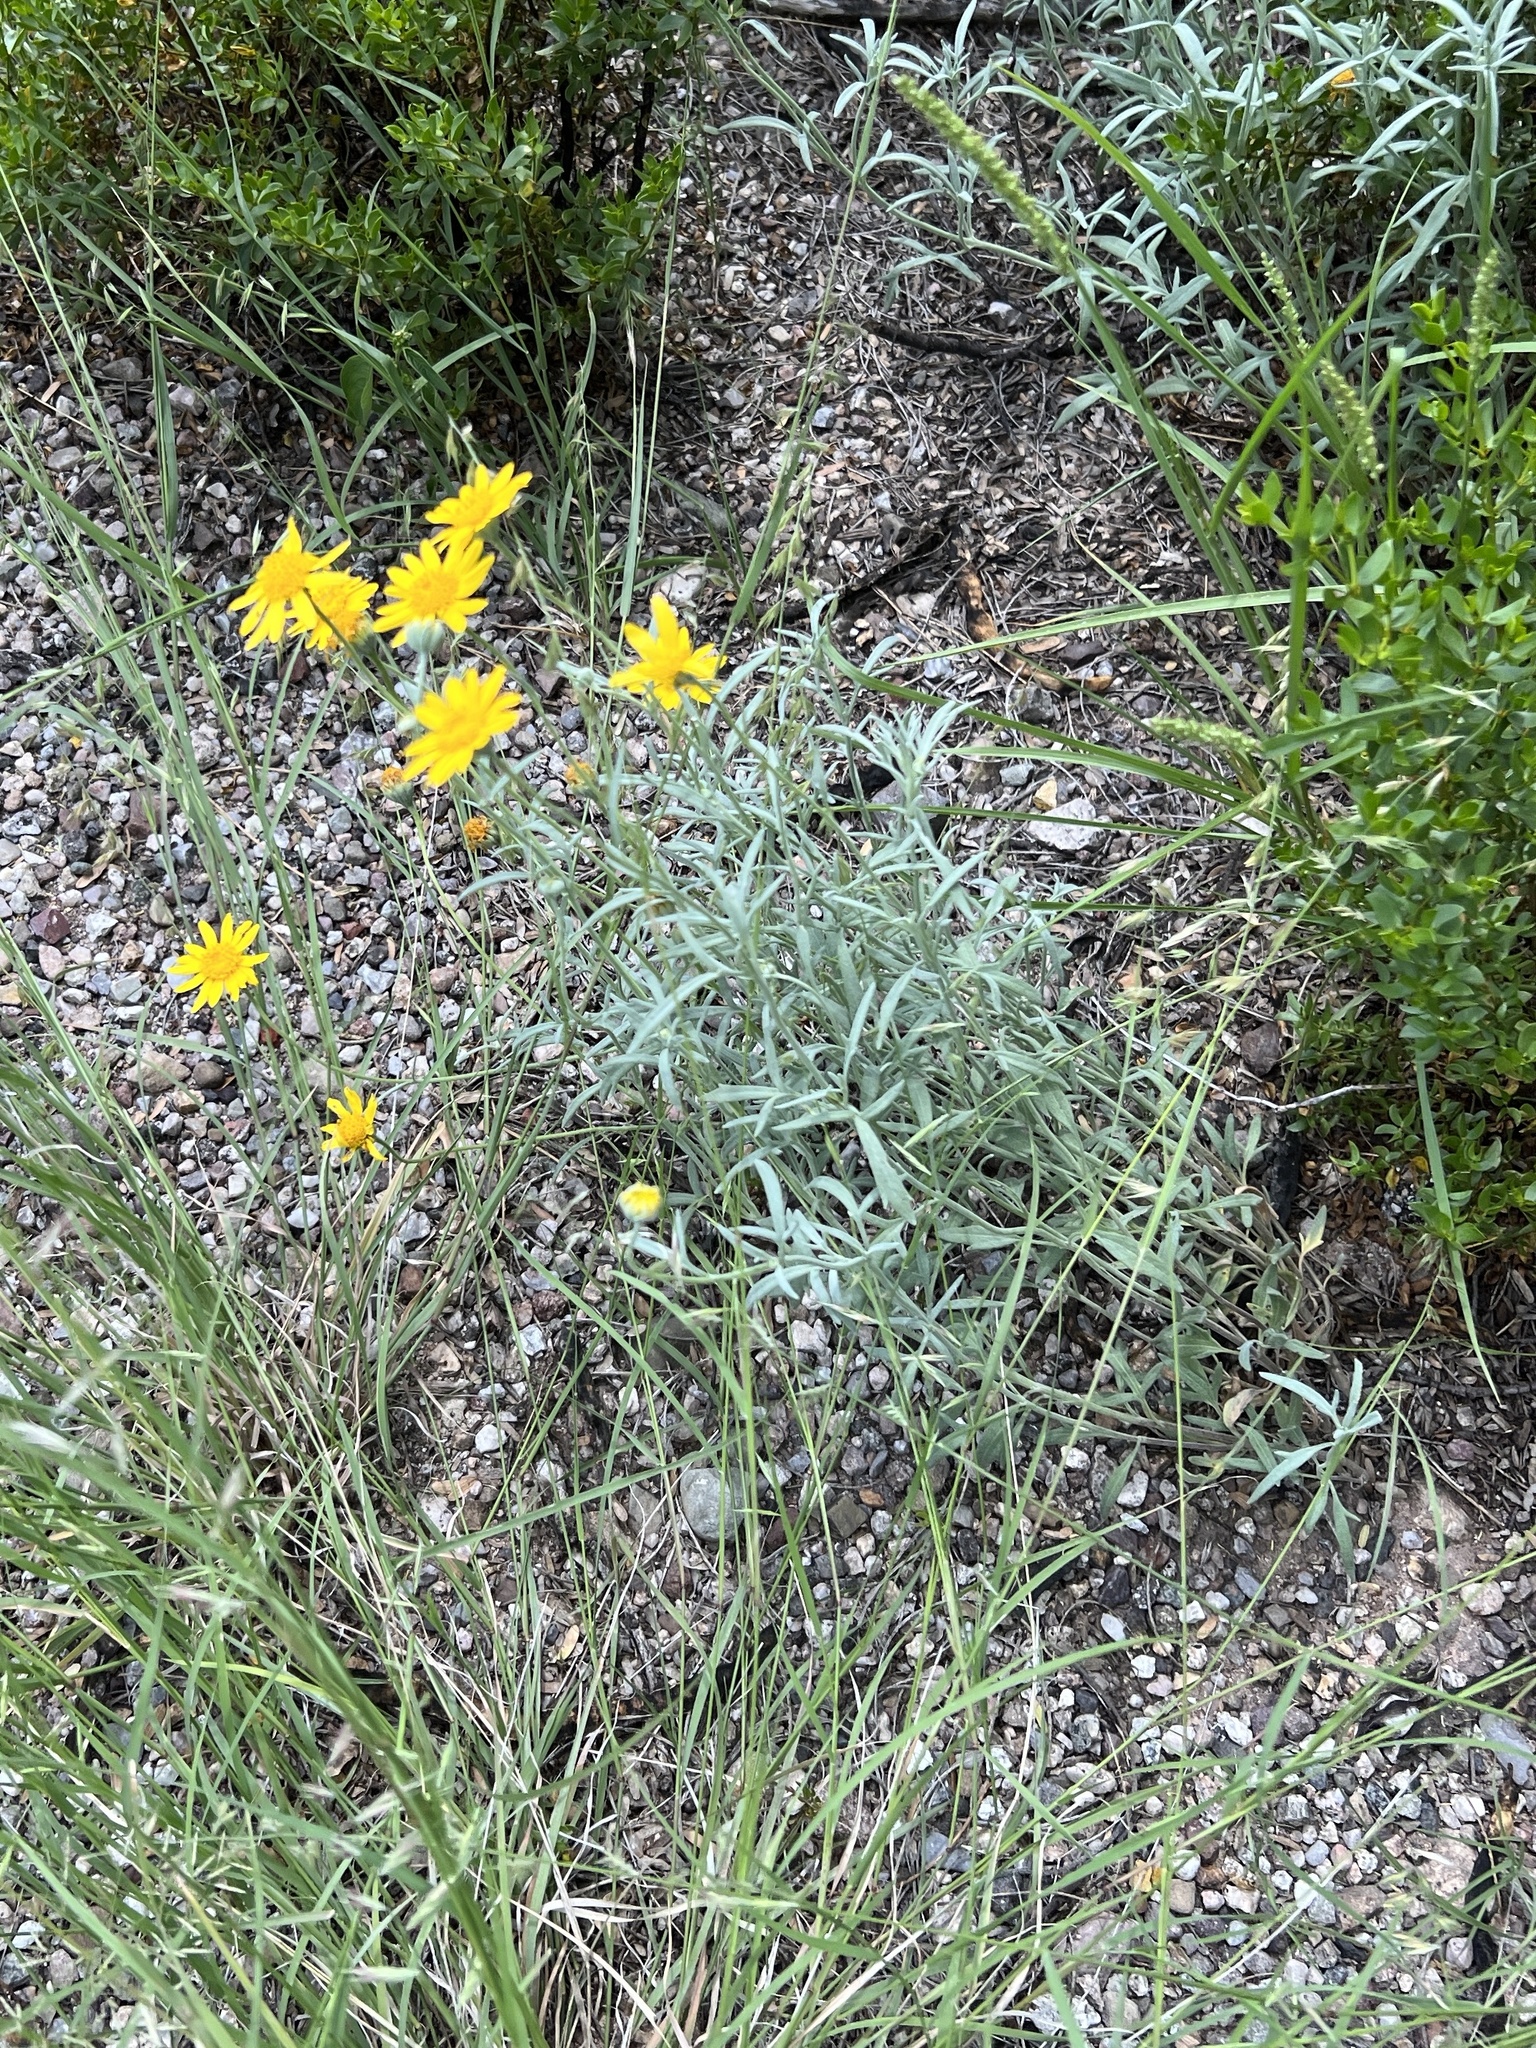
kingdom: Plantae
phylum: Tracheophyta
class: Magnoliopsida
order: Asterales
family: Asteraceae
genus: Picradeniopsis
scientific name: Picradeniopsis absinthifolia
